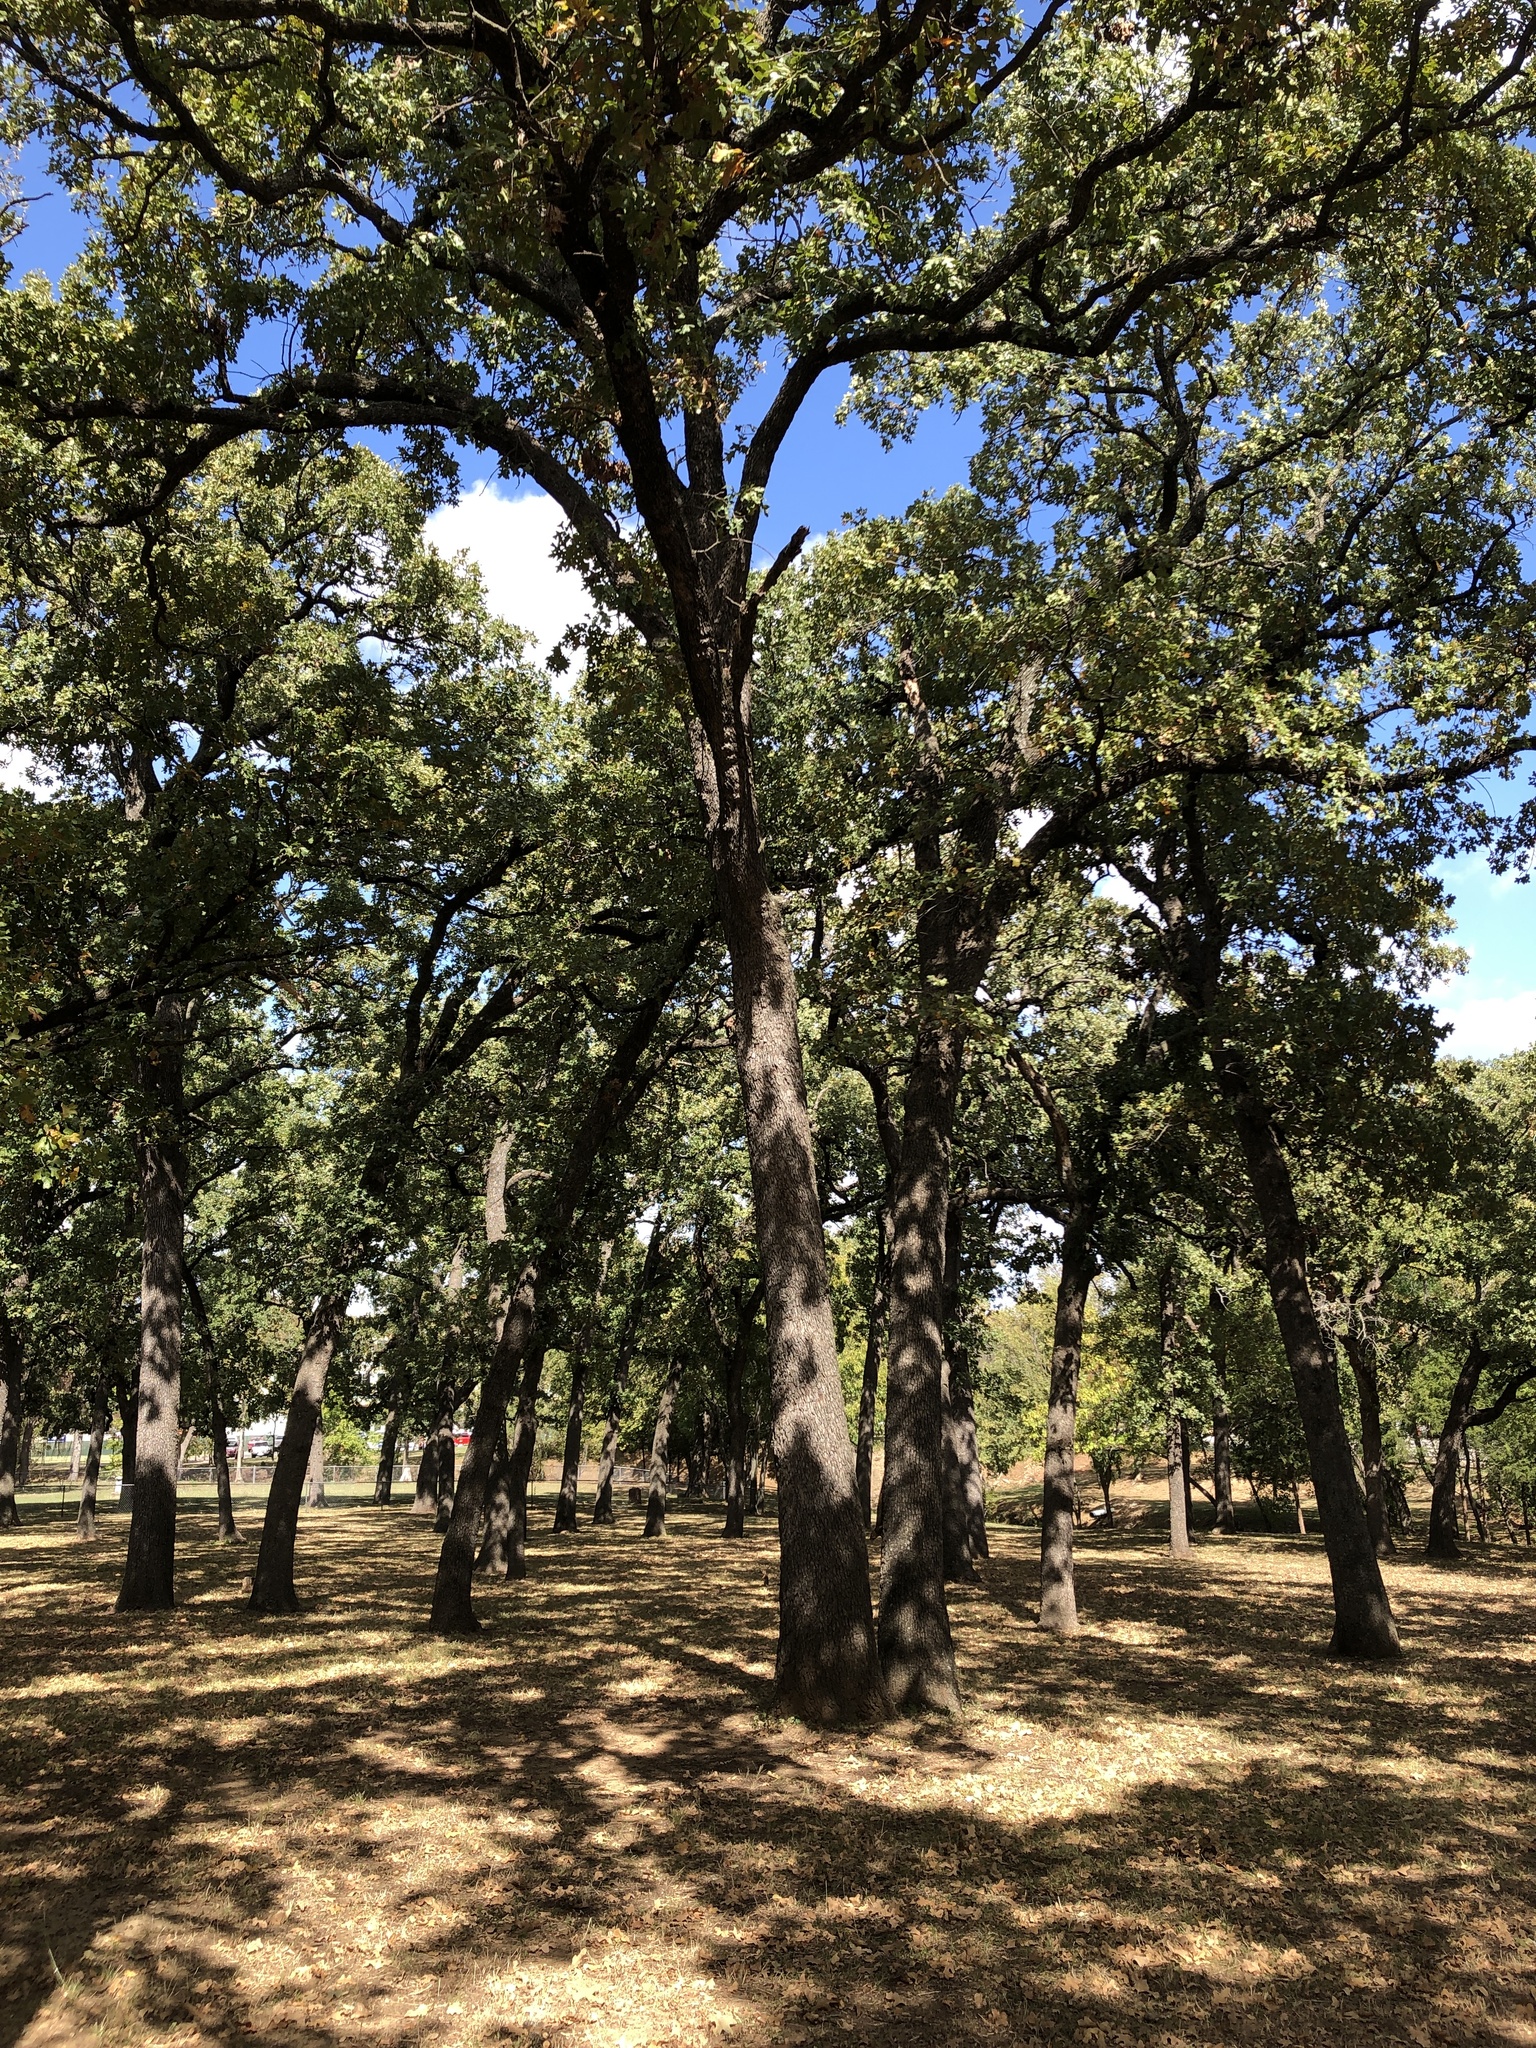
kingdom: Plantae
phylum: Tracheophyta
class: Magnoliopsida
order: Fagales
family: Fagaceae
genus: Quercus
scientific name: Quercus stellata
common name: Post oak
